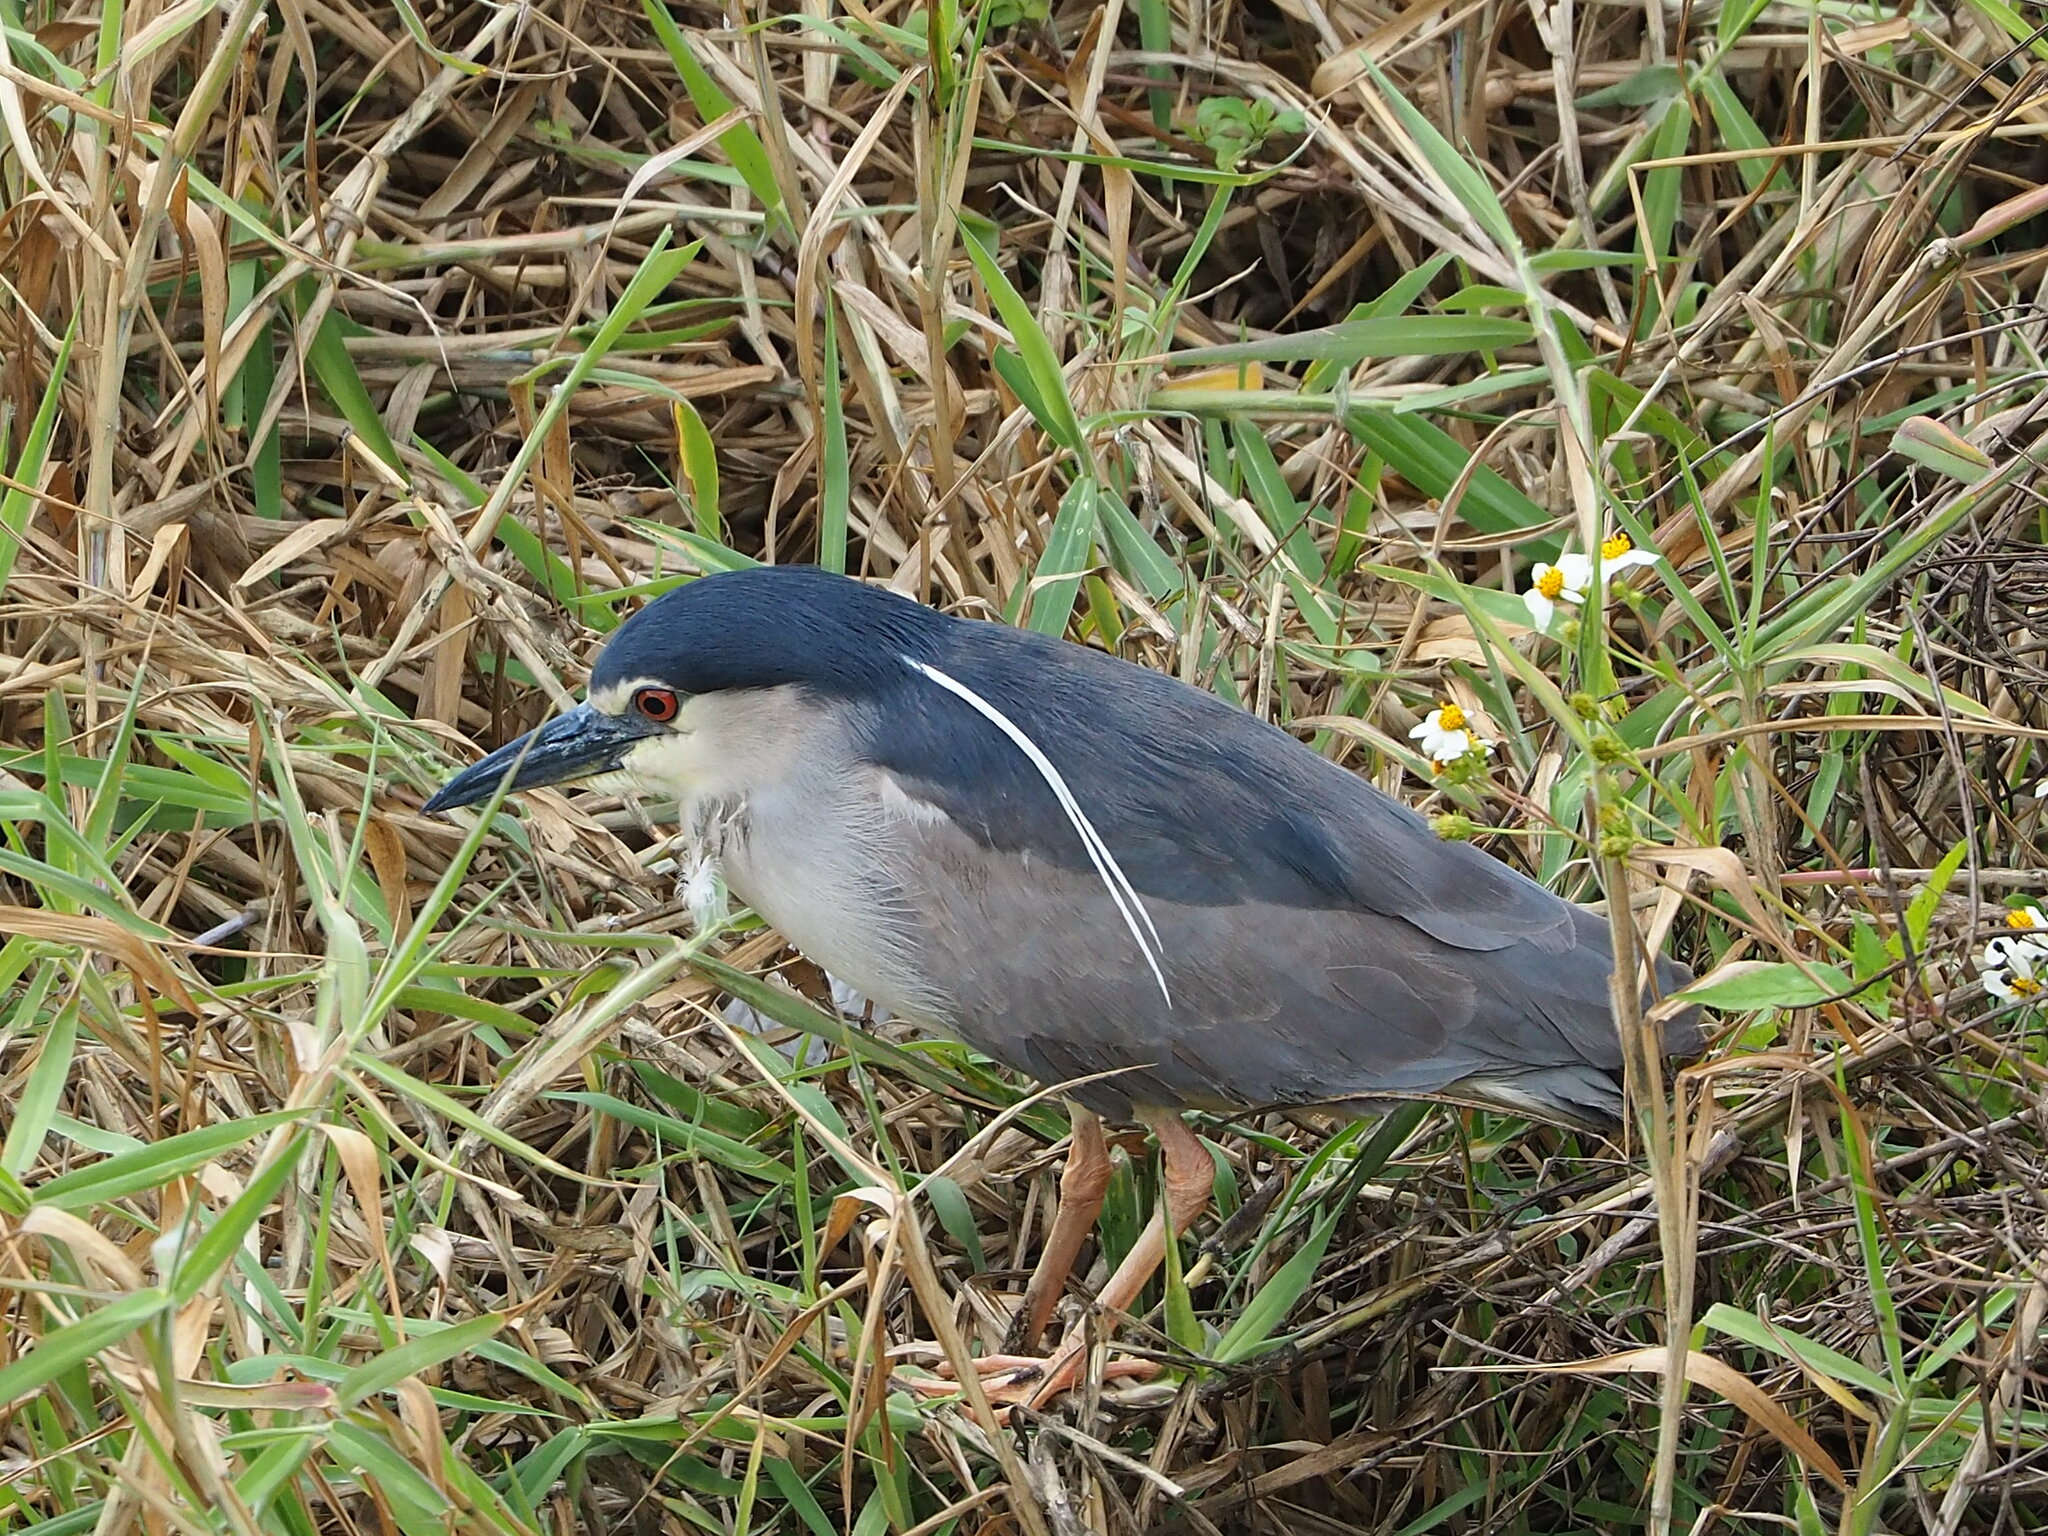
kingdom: Animalia
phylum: Chordata
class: Aves
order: Pelecaniformes
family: Ardeidae
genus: Nycticorax
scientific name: Nycticorax nycticorax
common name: Black-crowned night heron
